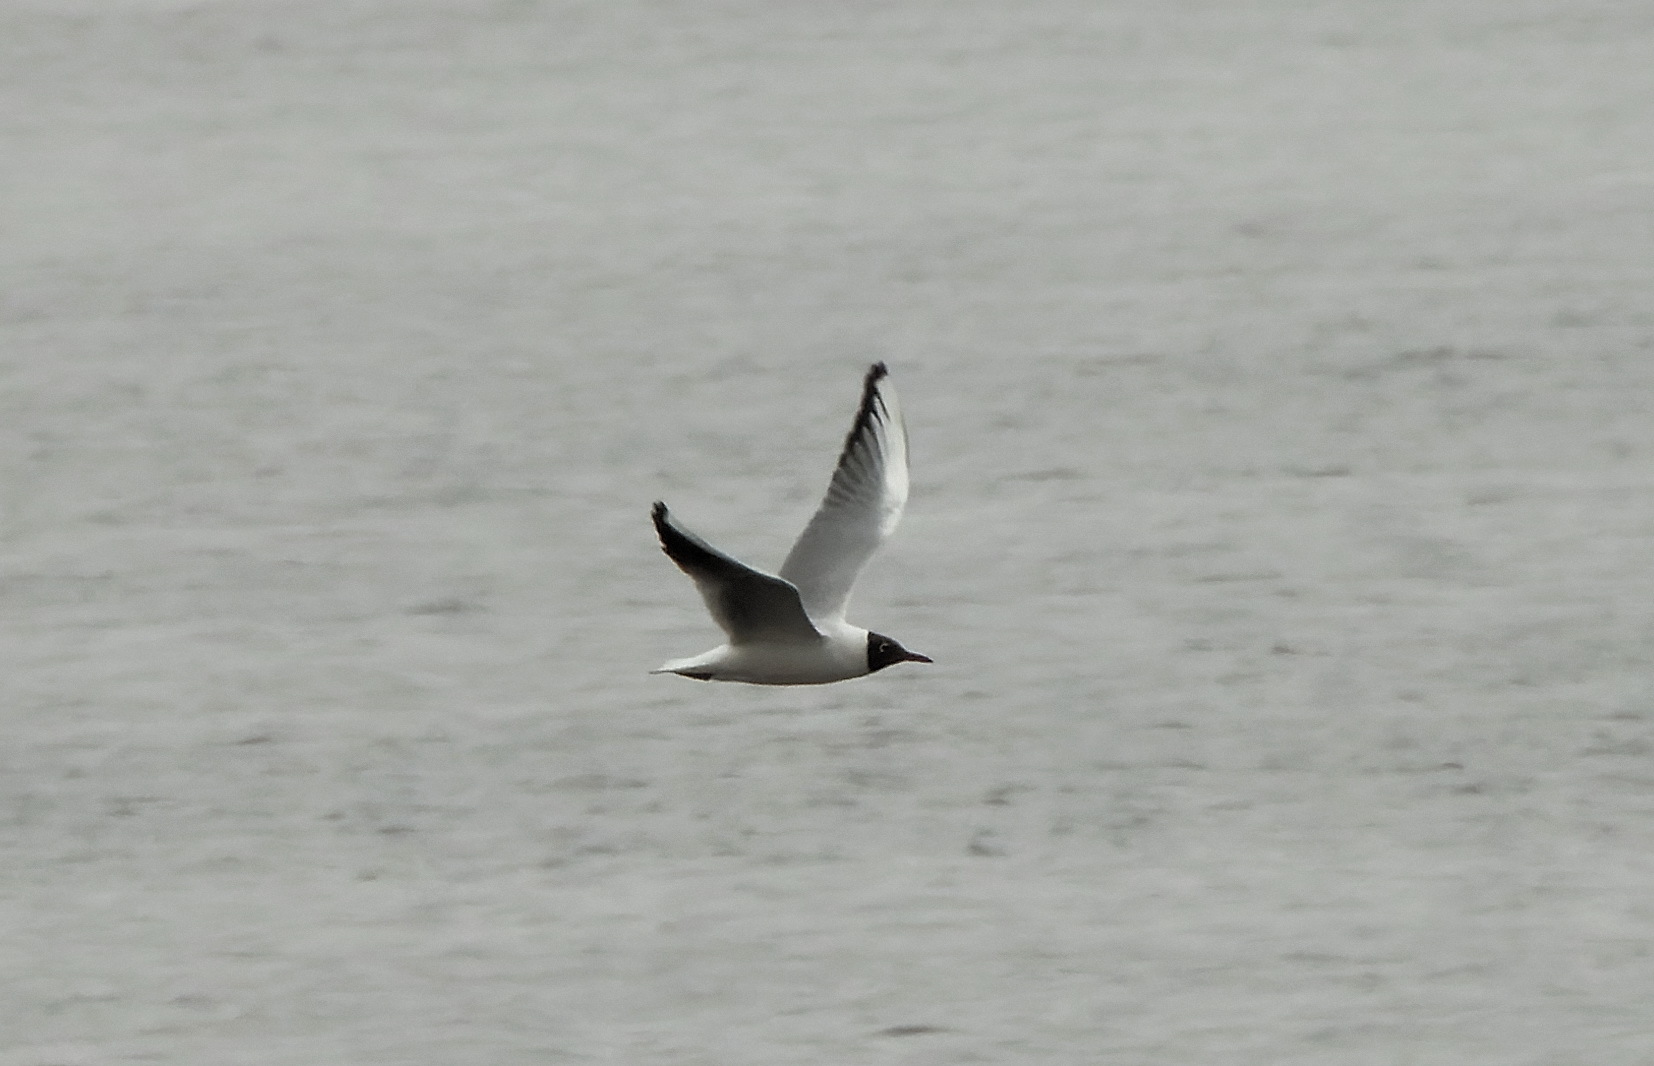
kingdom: Animalia
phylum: Chordata
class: Aves
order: Charadriiformes
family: Laridae
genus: Chroicocephalus
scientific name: Chroicocephalus ridibundus
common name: Black-headed gull
